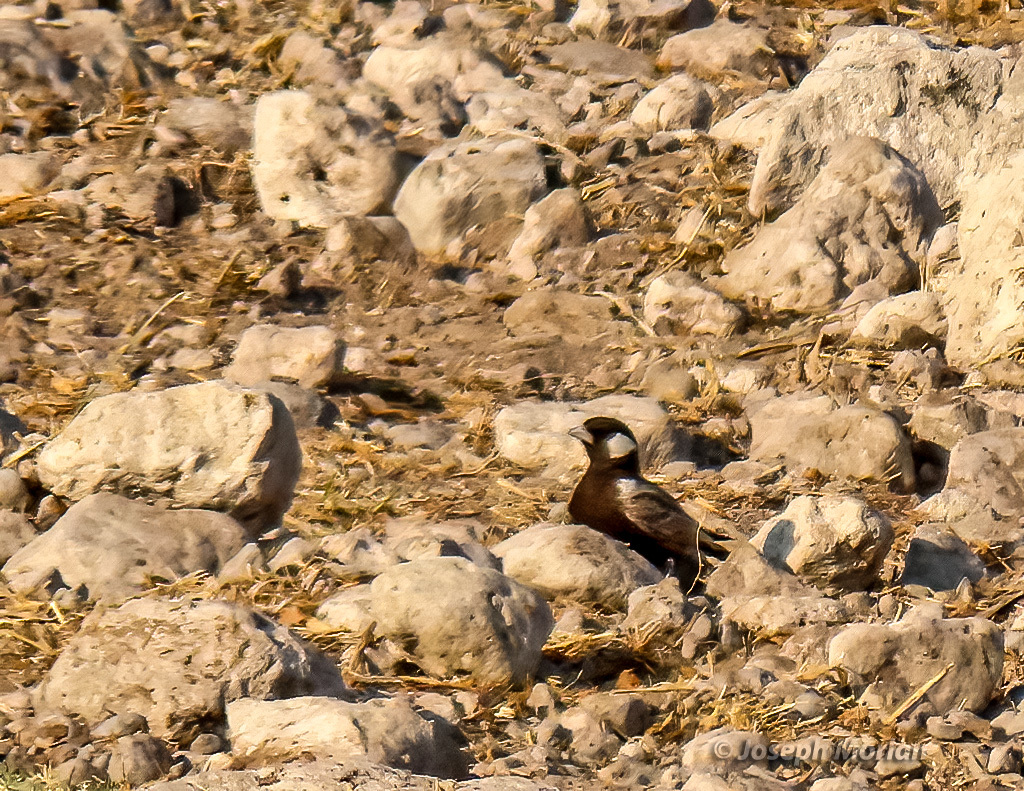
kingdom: Animalia
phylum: Chordata
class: Aves
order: Passeriformes
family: Alaudidae
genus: Eremopterix
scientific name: Eremopterix verticalis
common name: Grey-backed sparrow-lark
